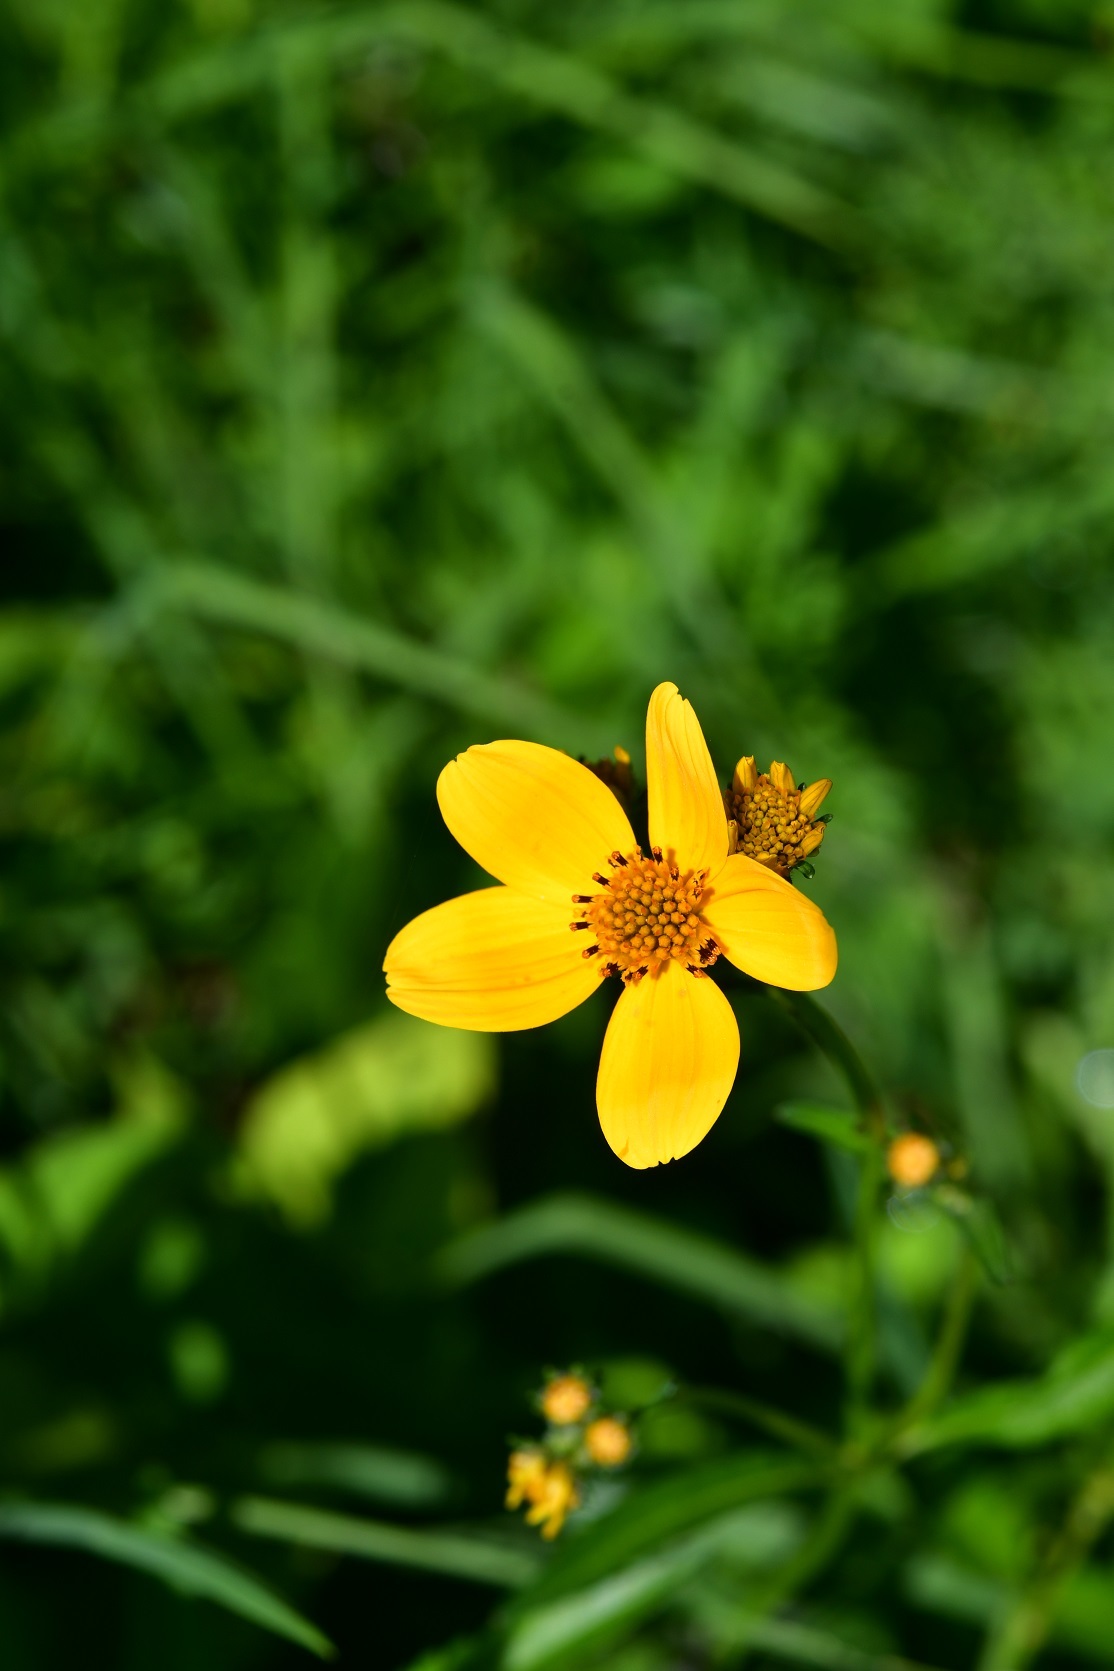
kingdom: Plantae
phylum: Tracheophyta
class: Magnoliopsida
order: Asterales
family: Asteraceae
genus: Bidens
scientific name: Bidens aurea
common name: Arizona beggar-ticks
